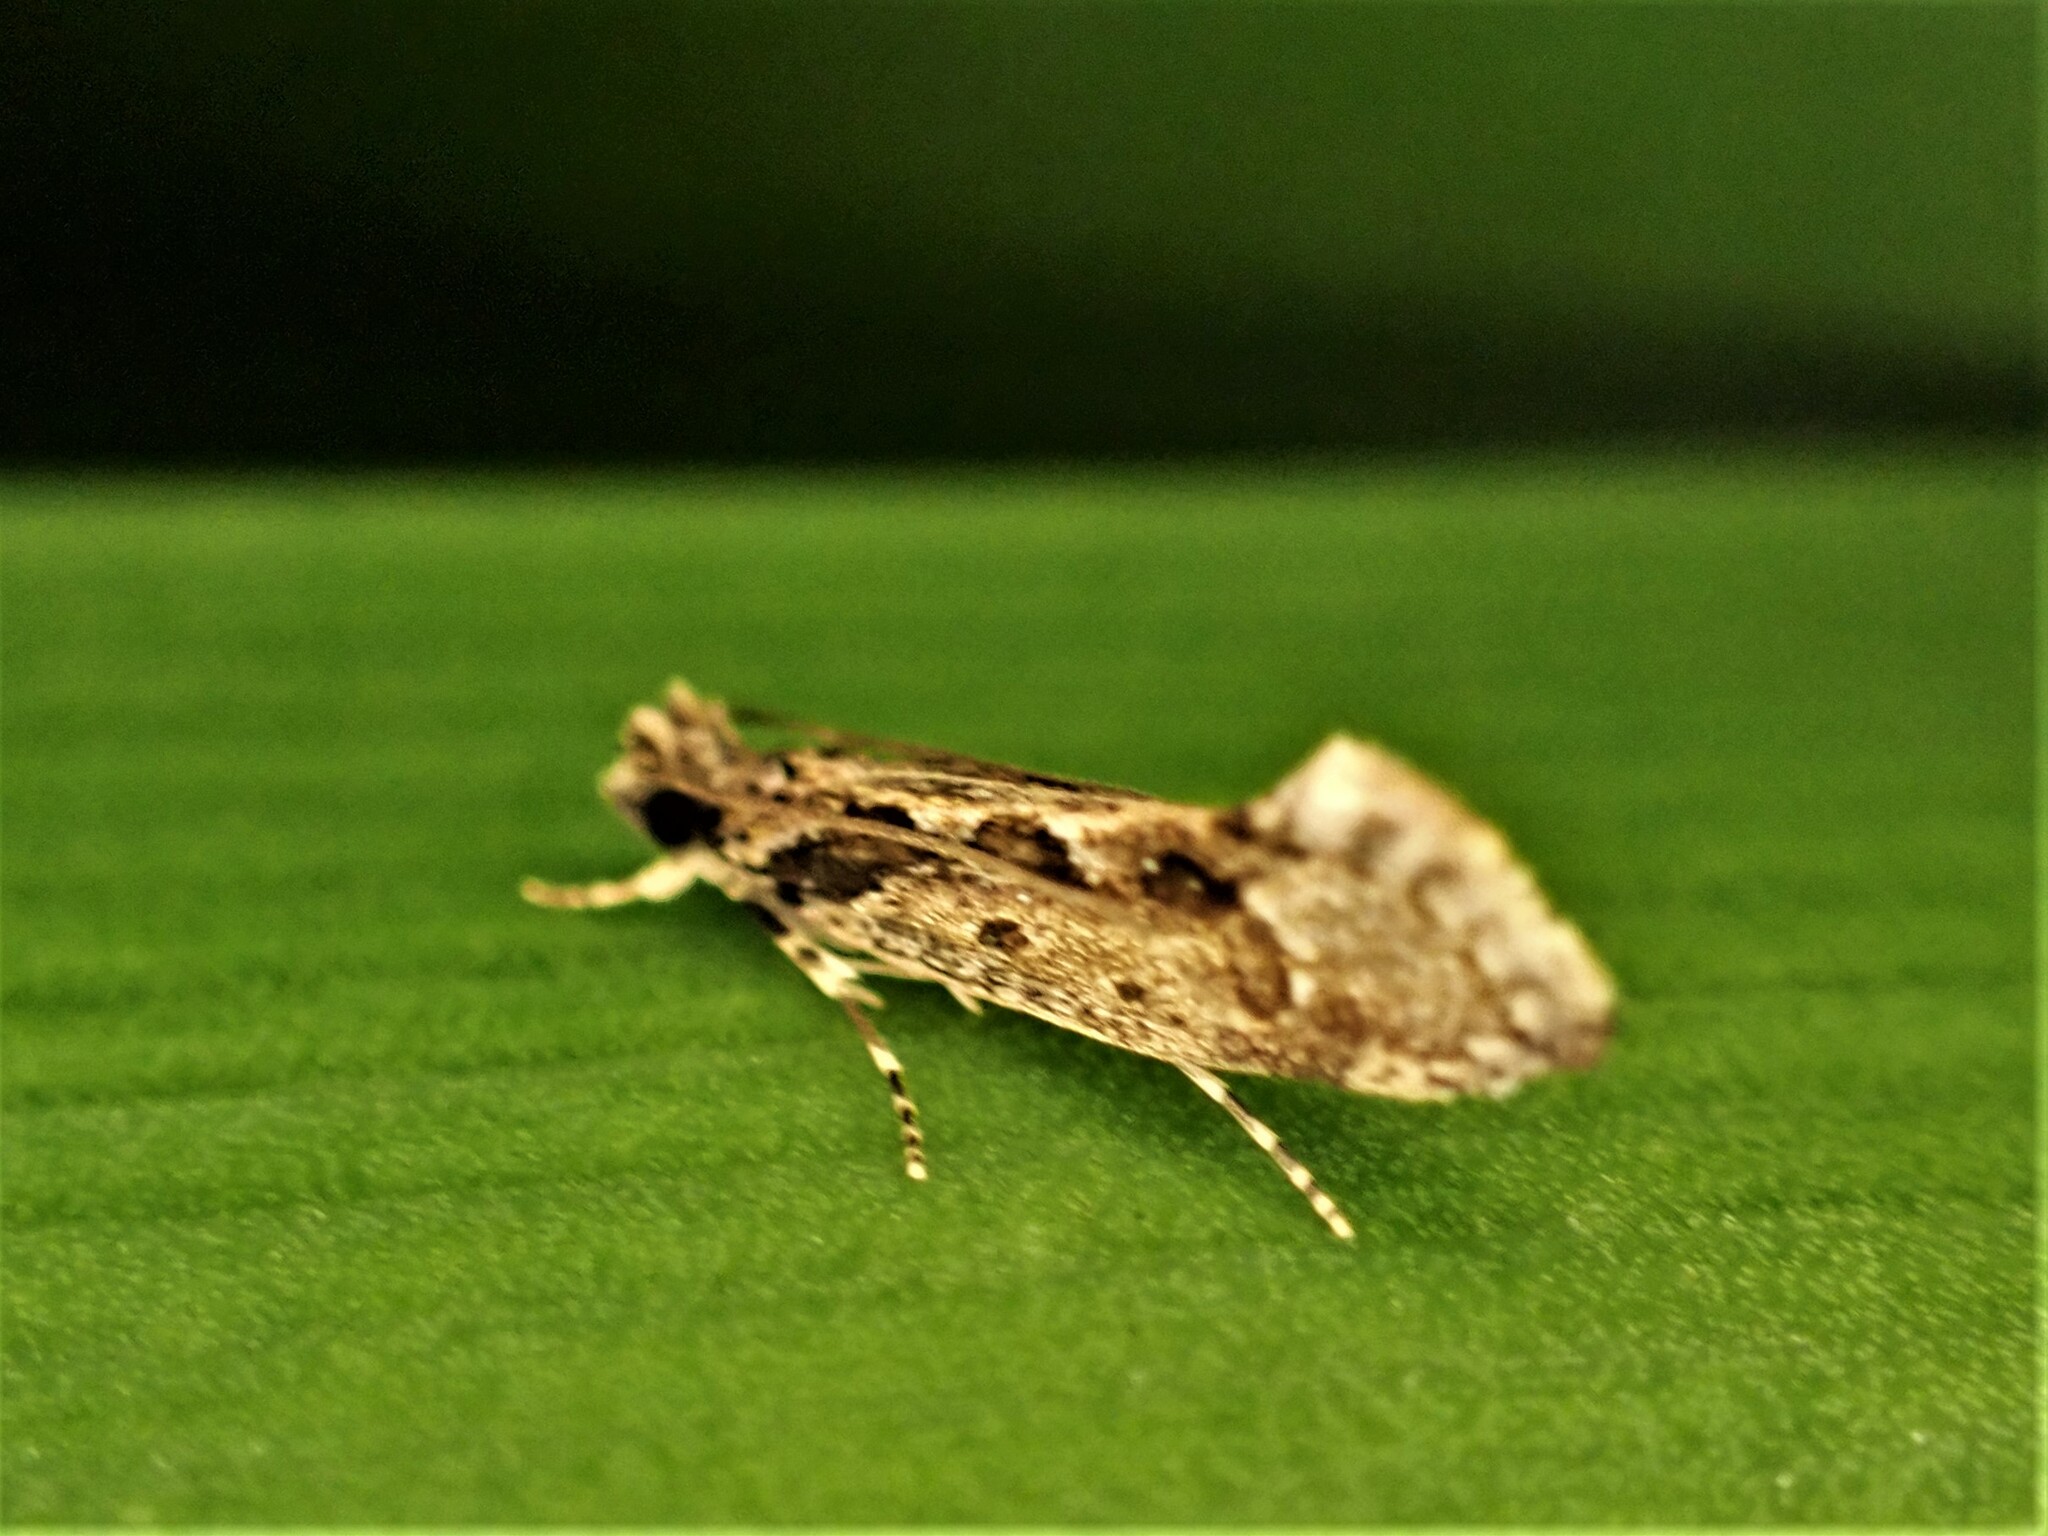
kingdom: Animalia
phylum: Arthropoda
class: Insecta
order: Lepidoptera
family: Tineidae
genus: Erechthias
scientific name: Erechthias capnitis
